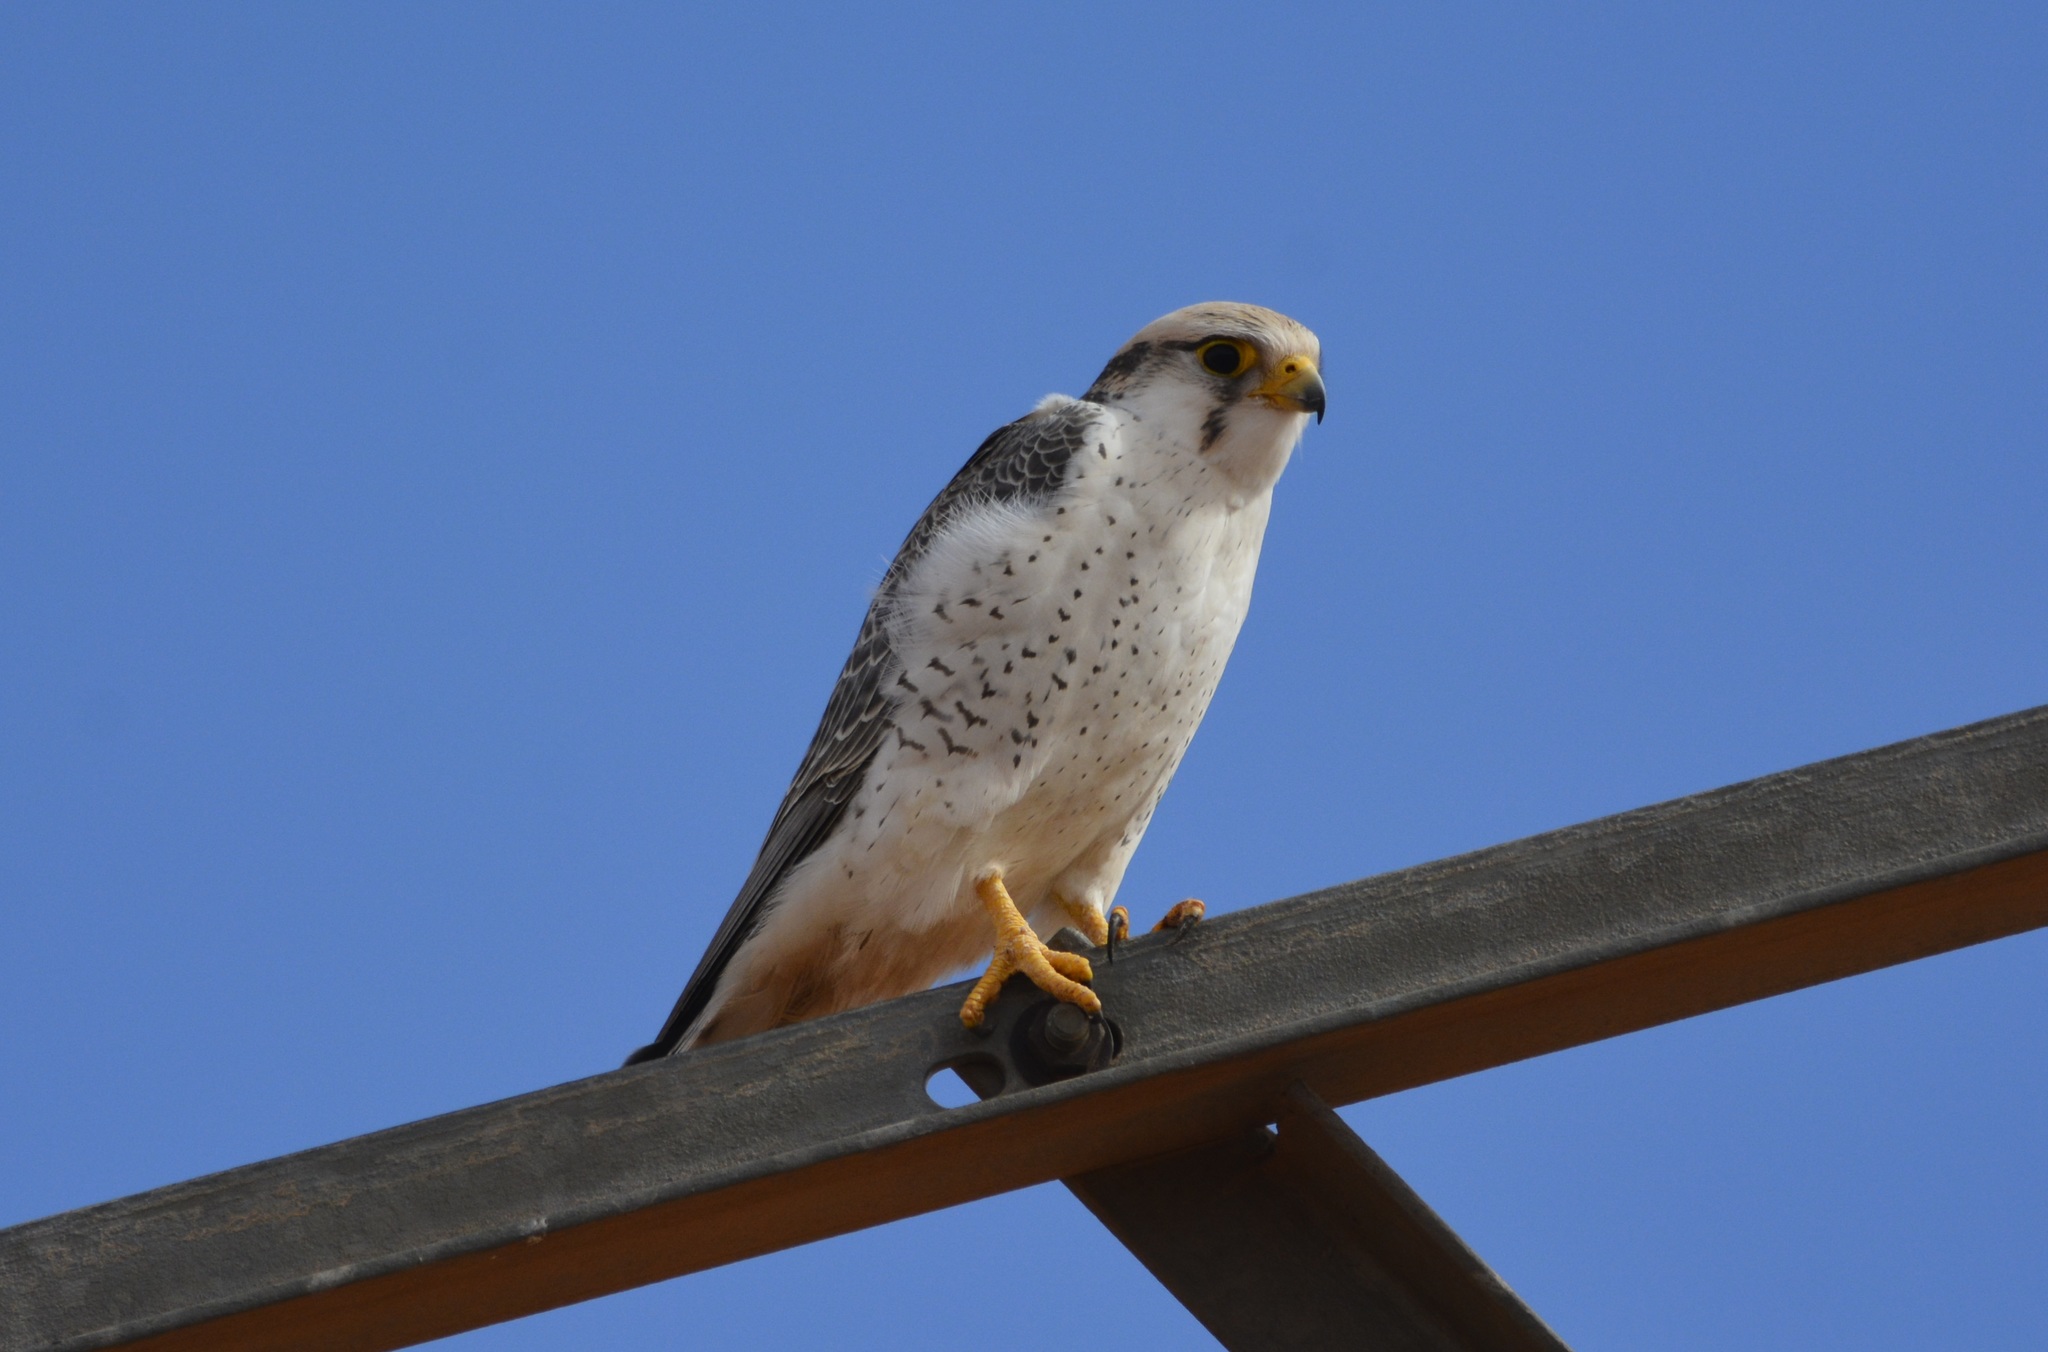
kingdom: Animalia
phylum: Chordata
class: Aves
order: Falconiformes
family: Falconidae
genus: Falco
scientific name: Falco biarmicus
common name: Lanner falcon
